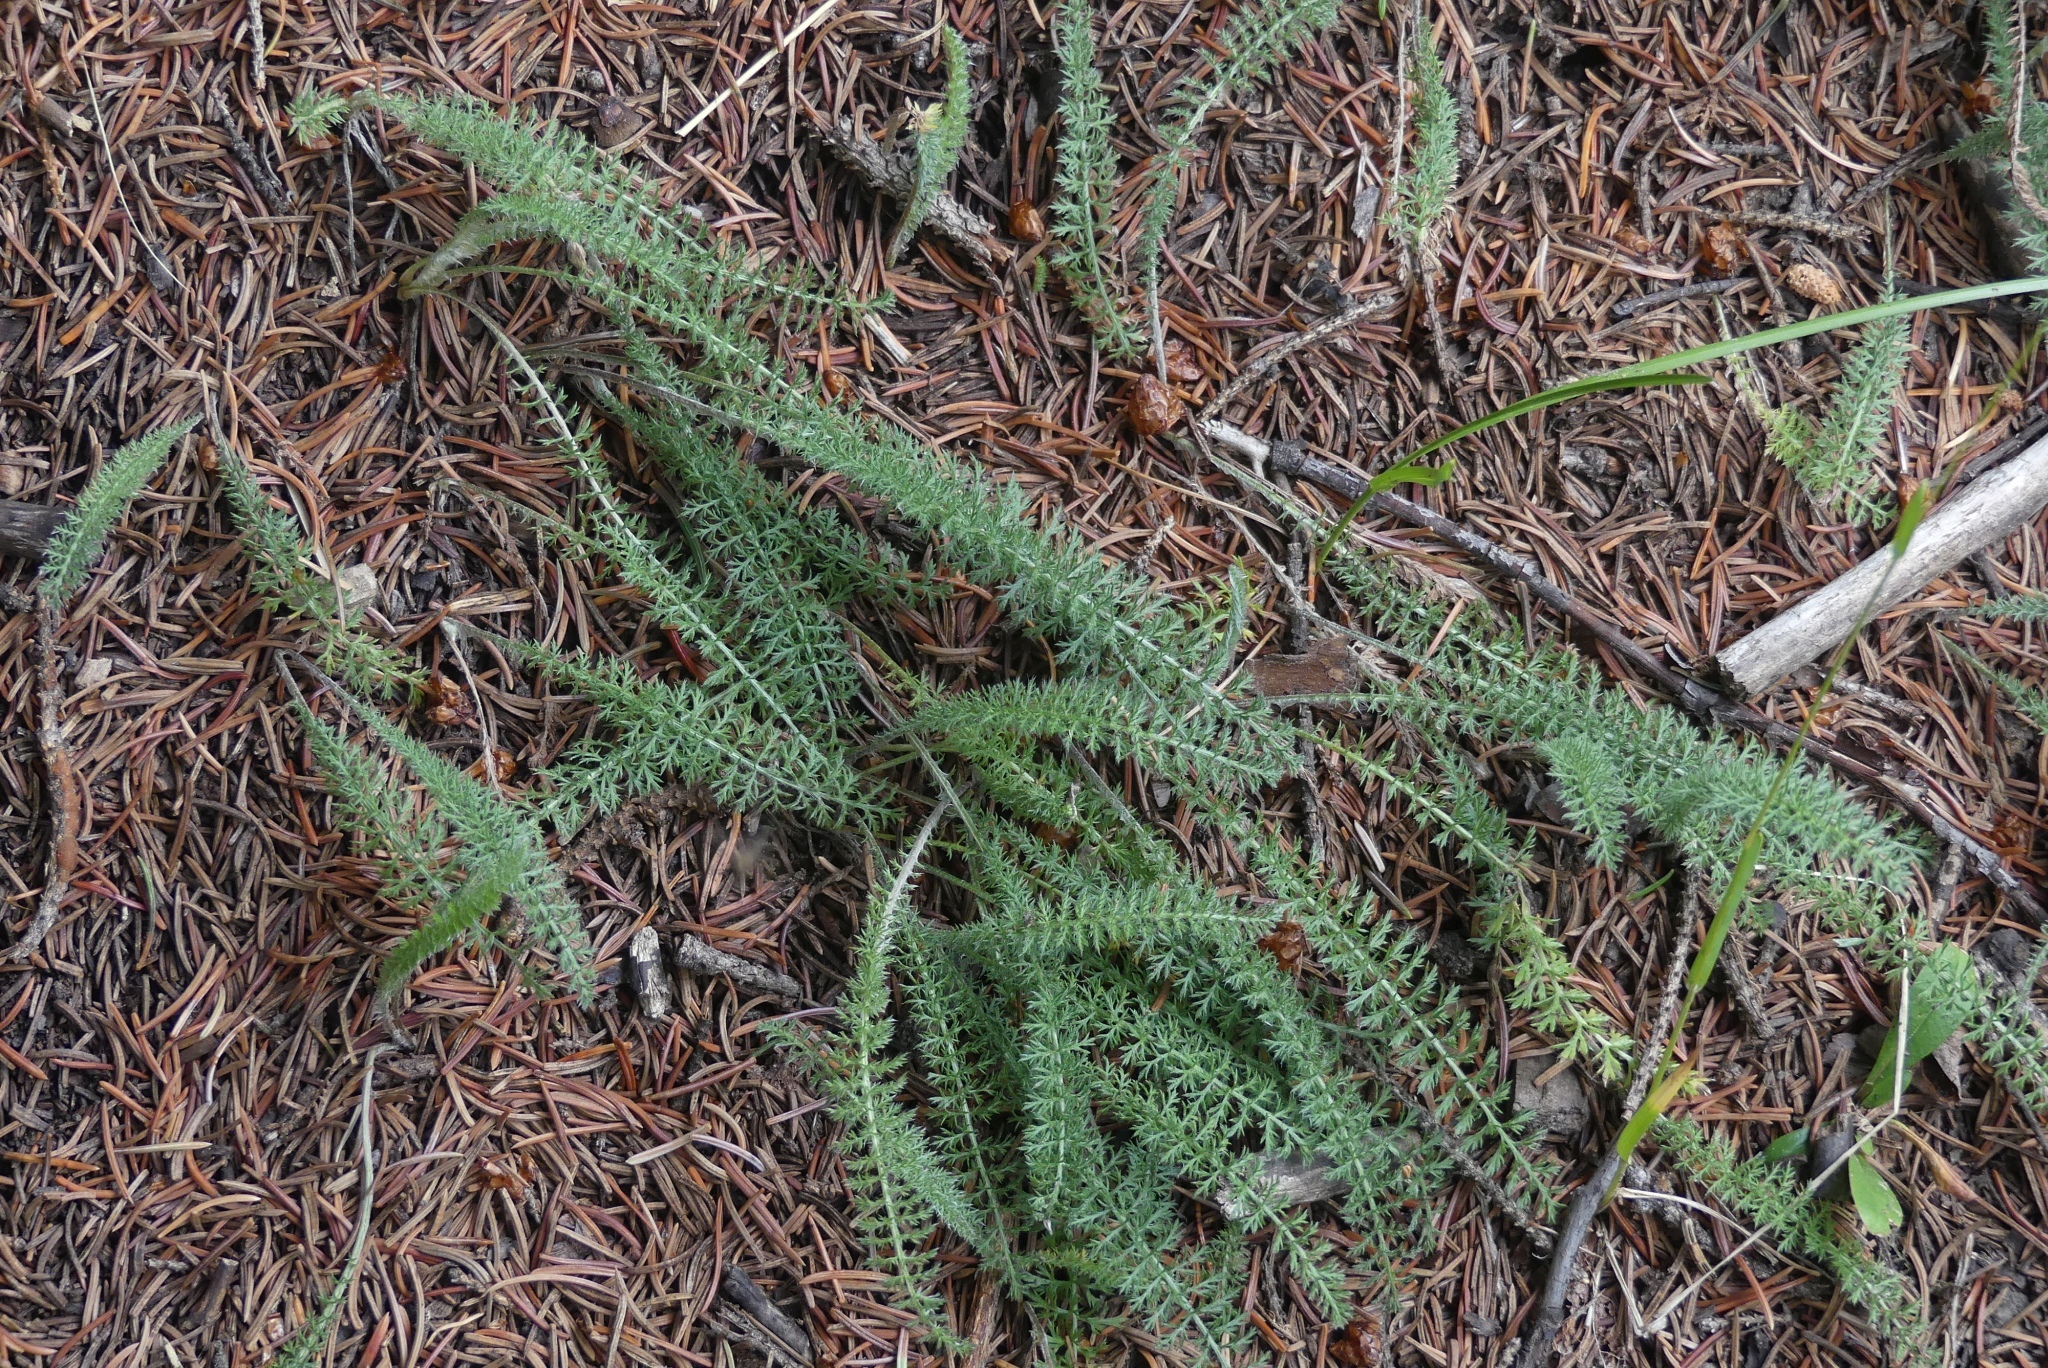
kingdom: Plantae
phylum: Tracheophyta
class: Magnoliopsida
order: Asterales
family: Asteraceae
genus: Achillea
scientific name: Achillea millefolium
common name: Yarrow
